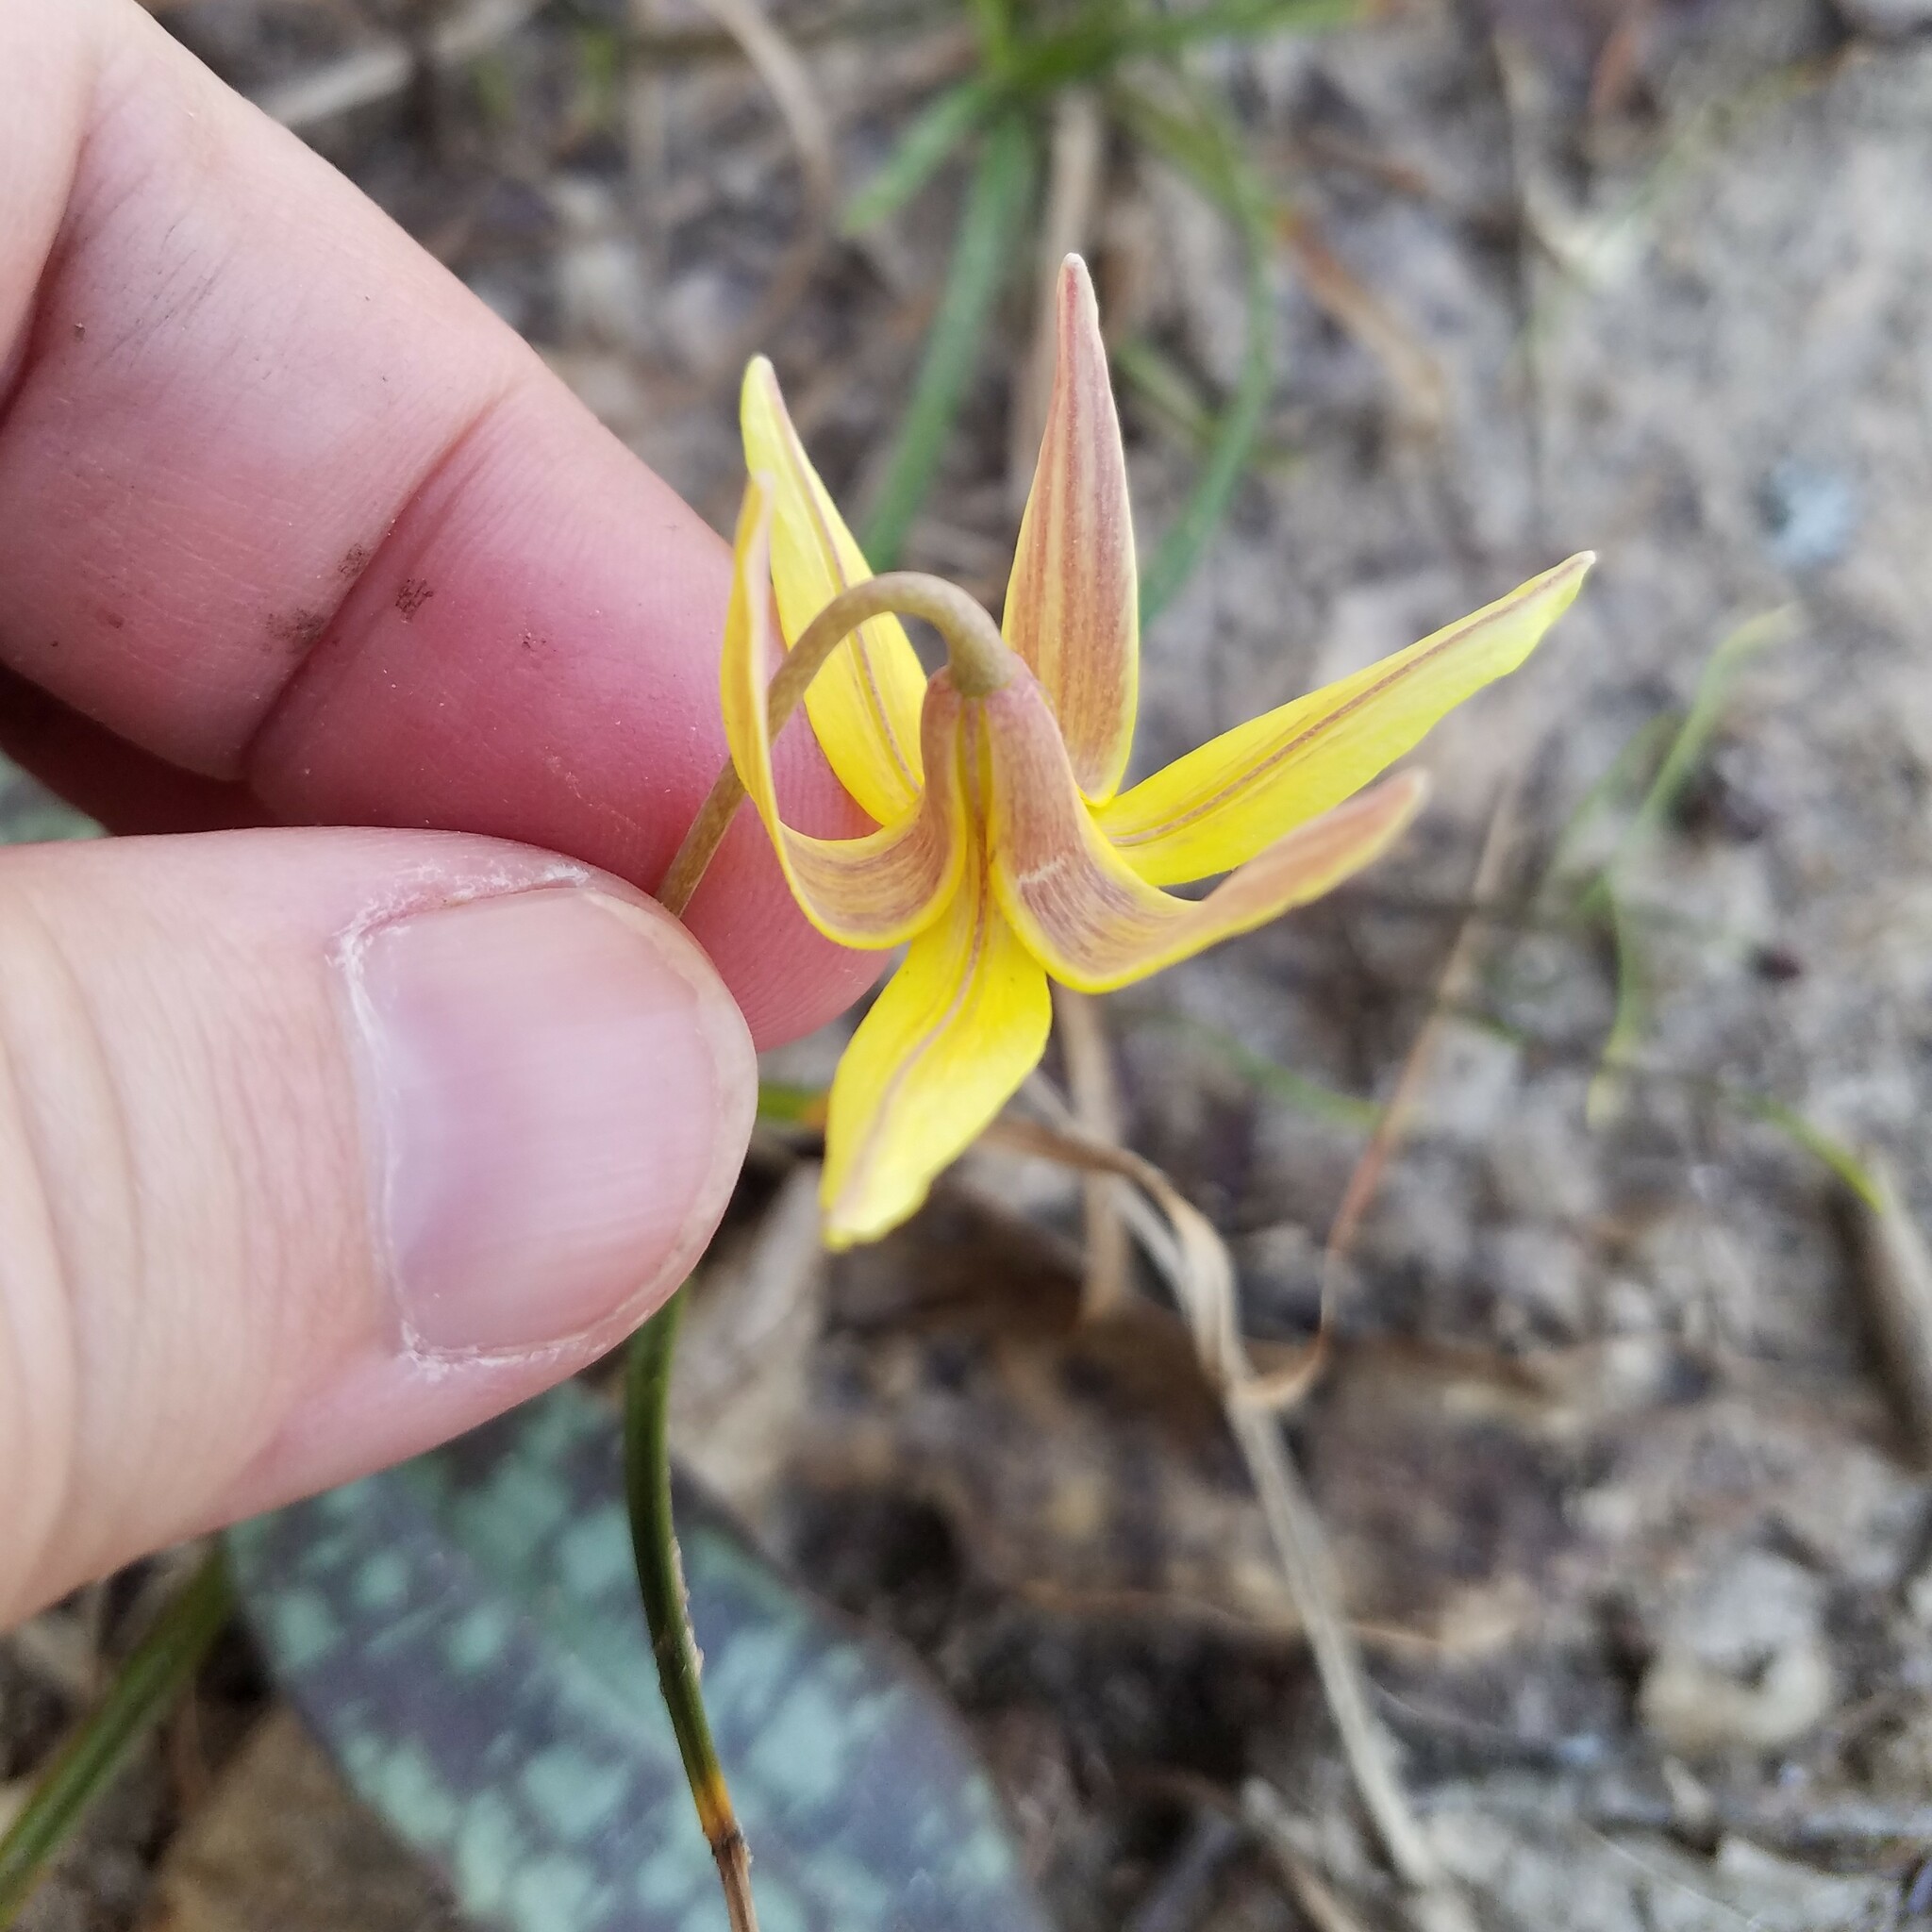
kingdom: Plantae
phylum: Tracheophyta
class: Liliopsida
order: Liliales
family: Liliaceae
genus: Erythronium
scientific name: Erythronium umbilicatum
